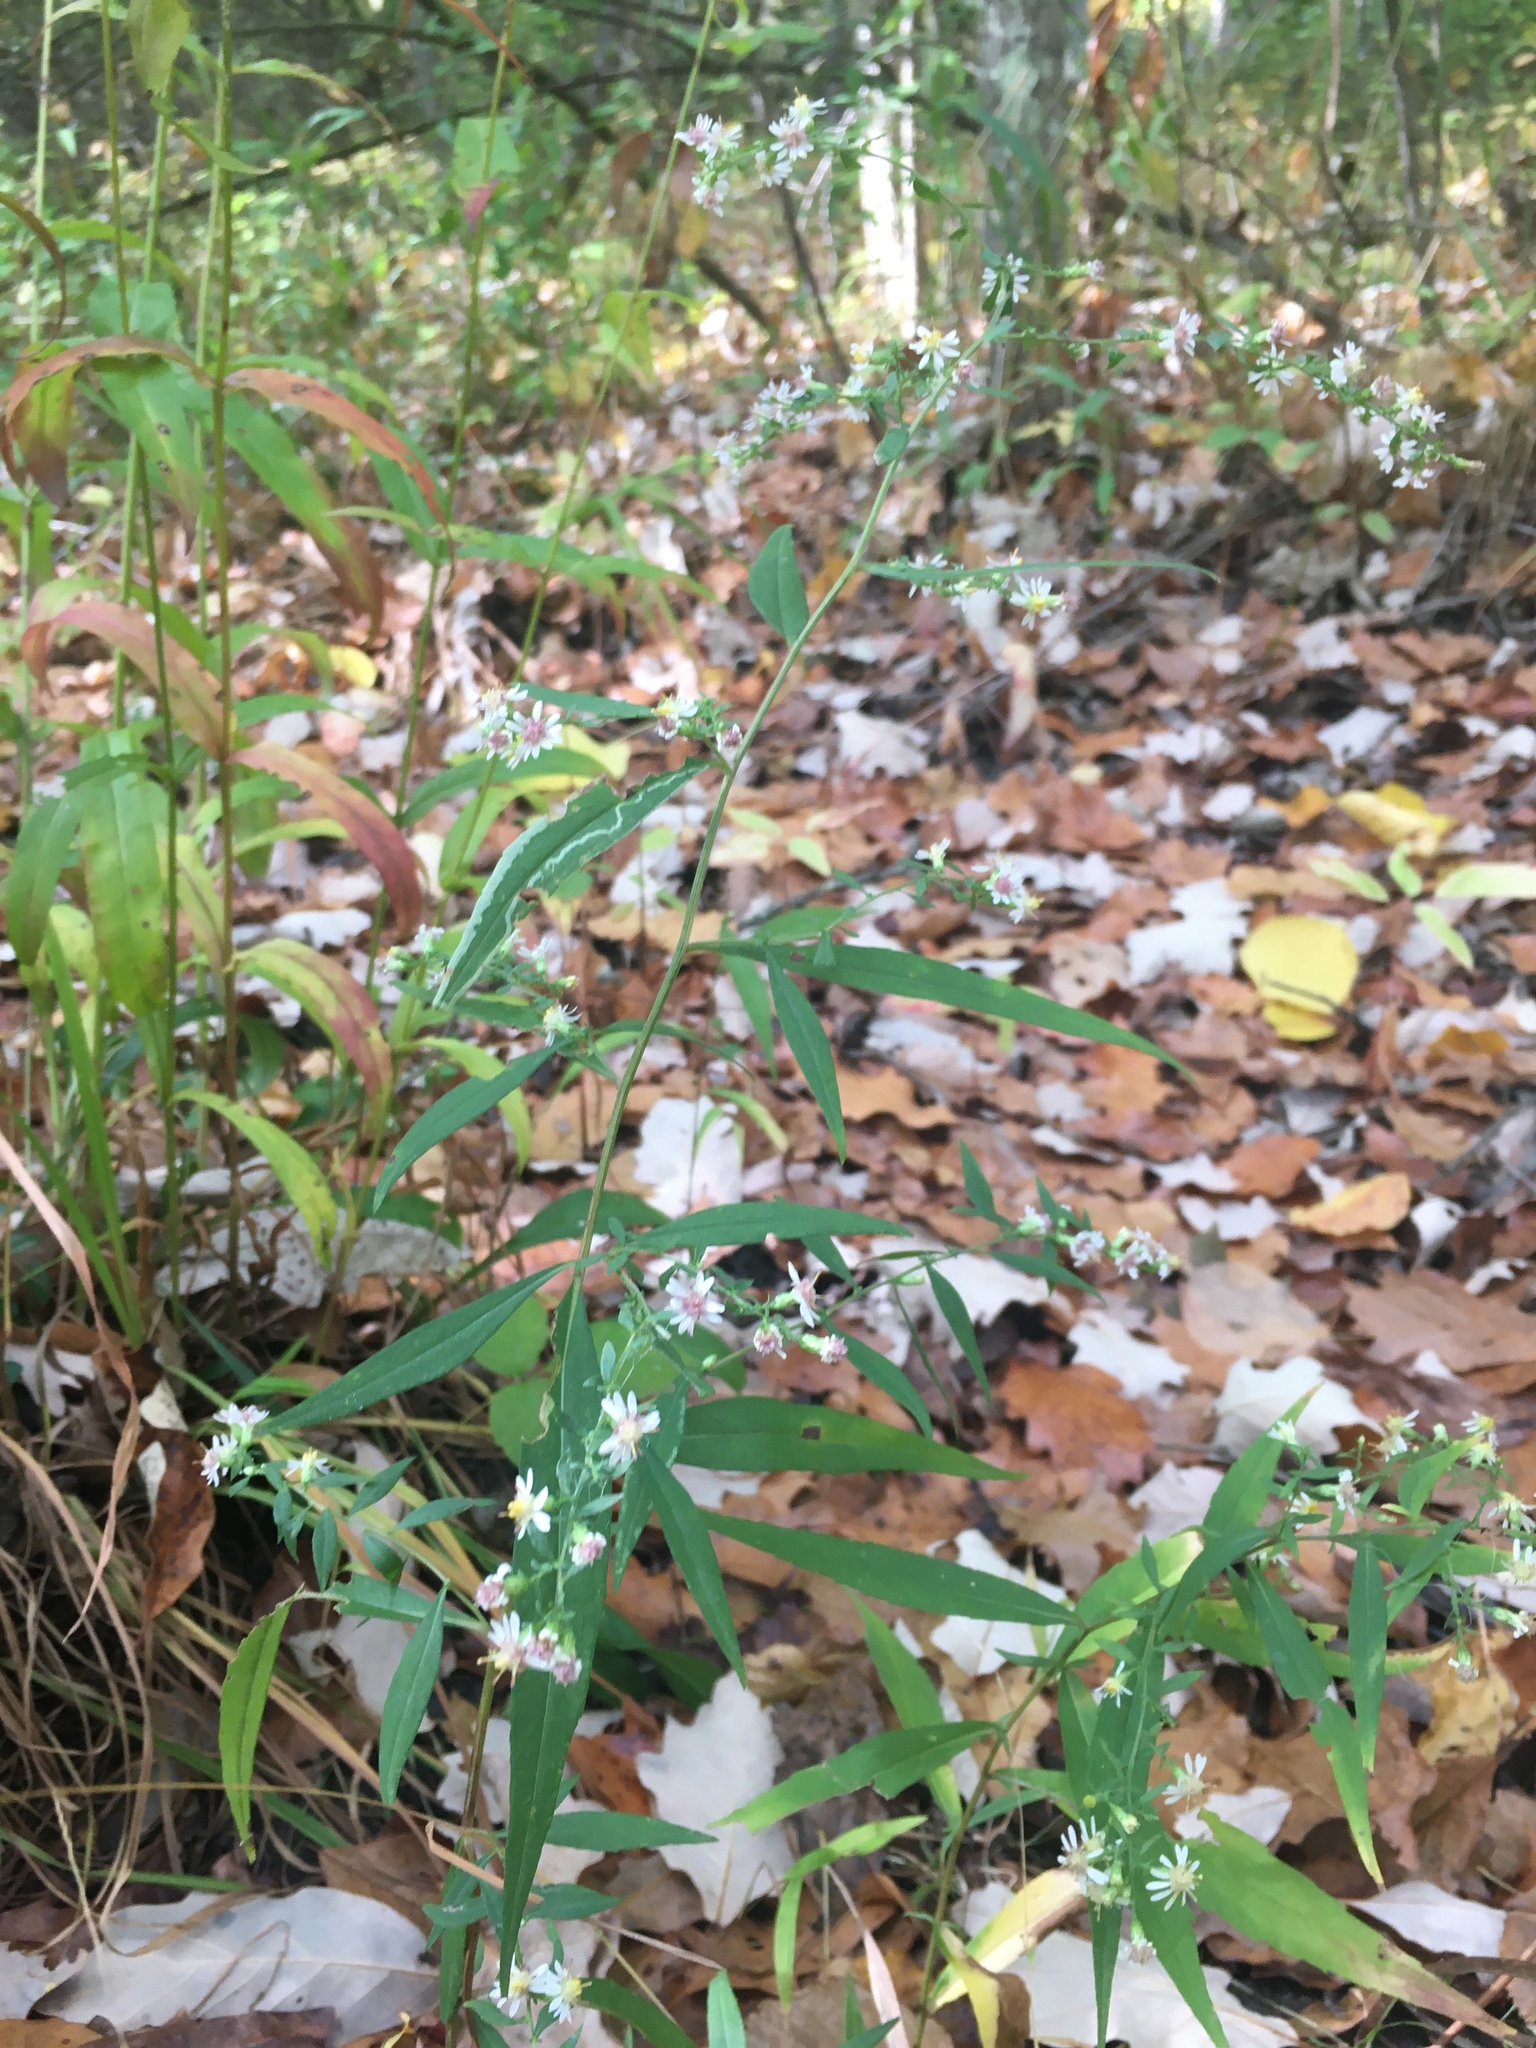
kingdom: Plantae
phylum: Tracheophyta
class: Magnoliopsida
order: Asterales
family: Asteraceae
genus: Symphyotrichum
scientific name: Symphyotrichum lateriflorum
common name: Calico aster
